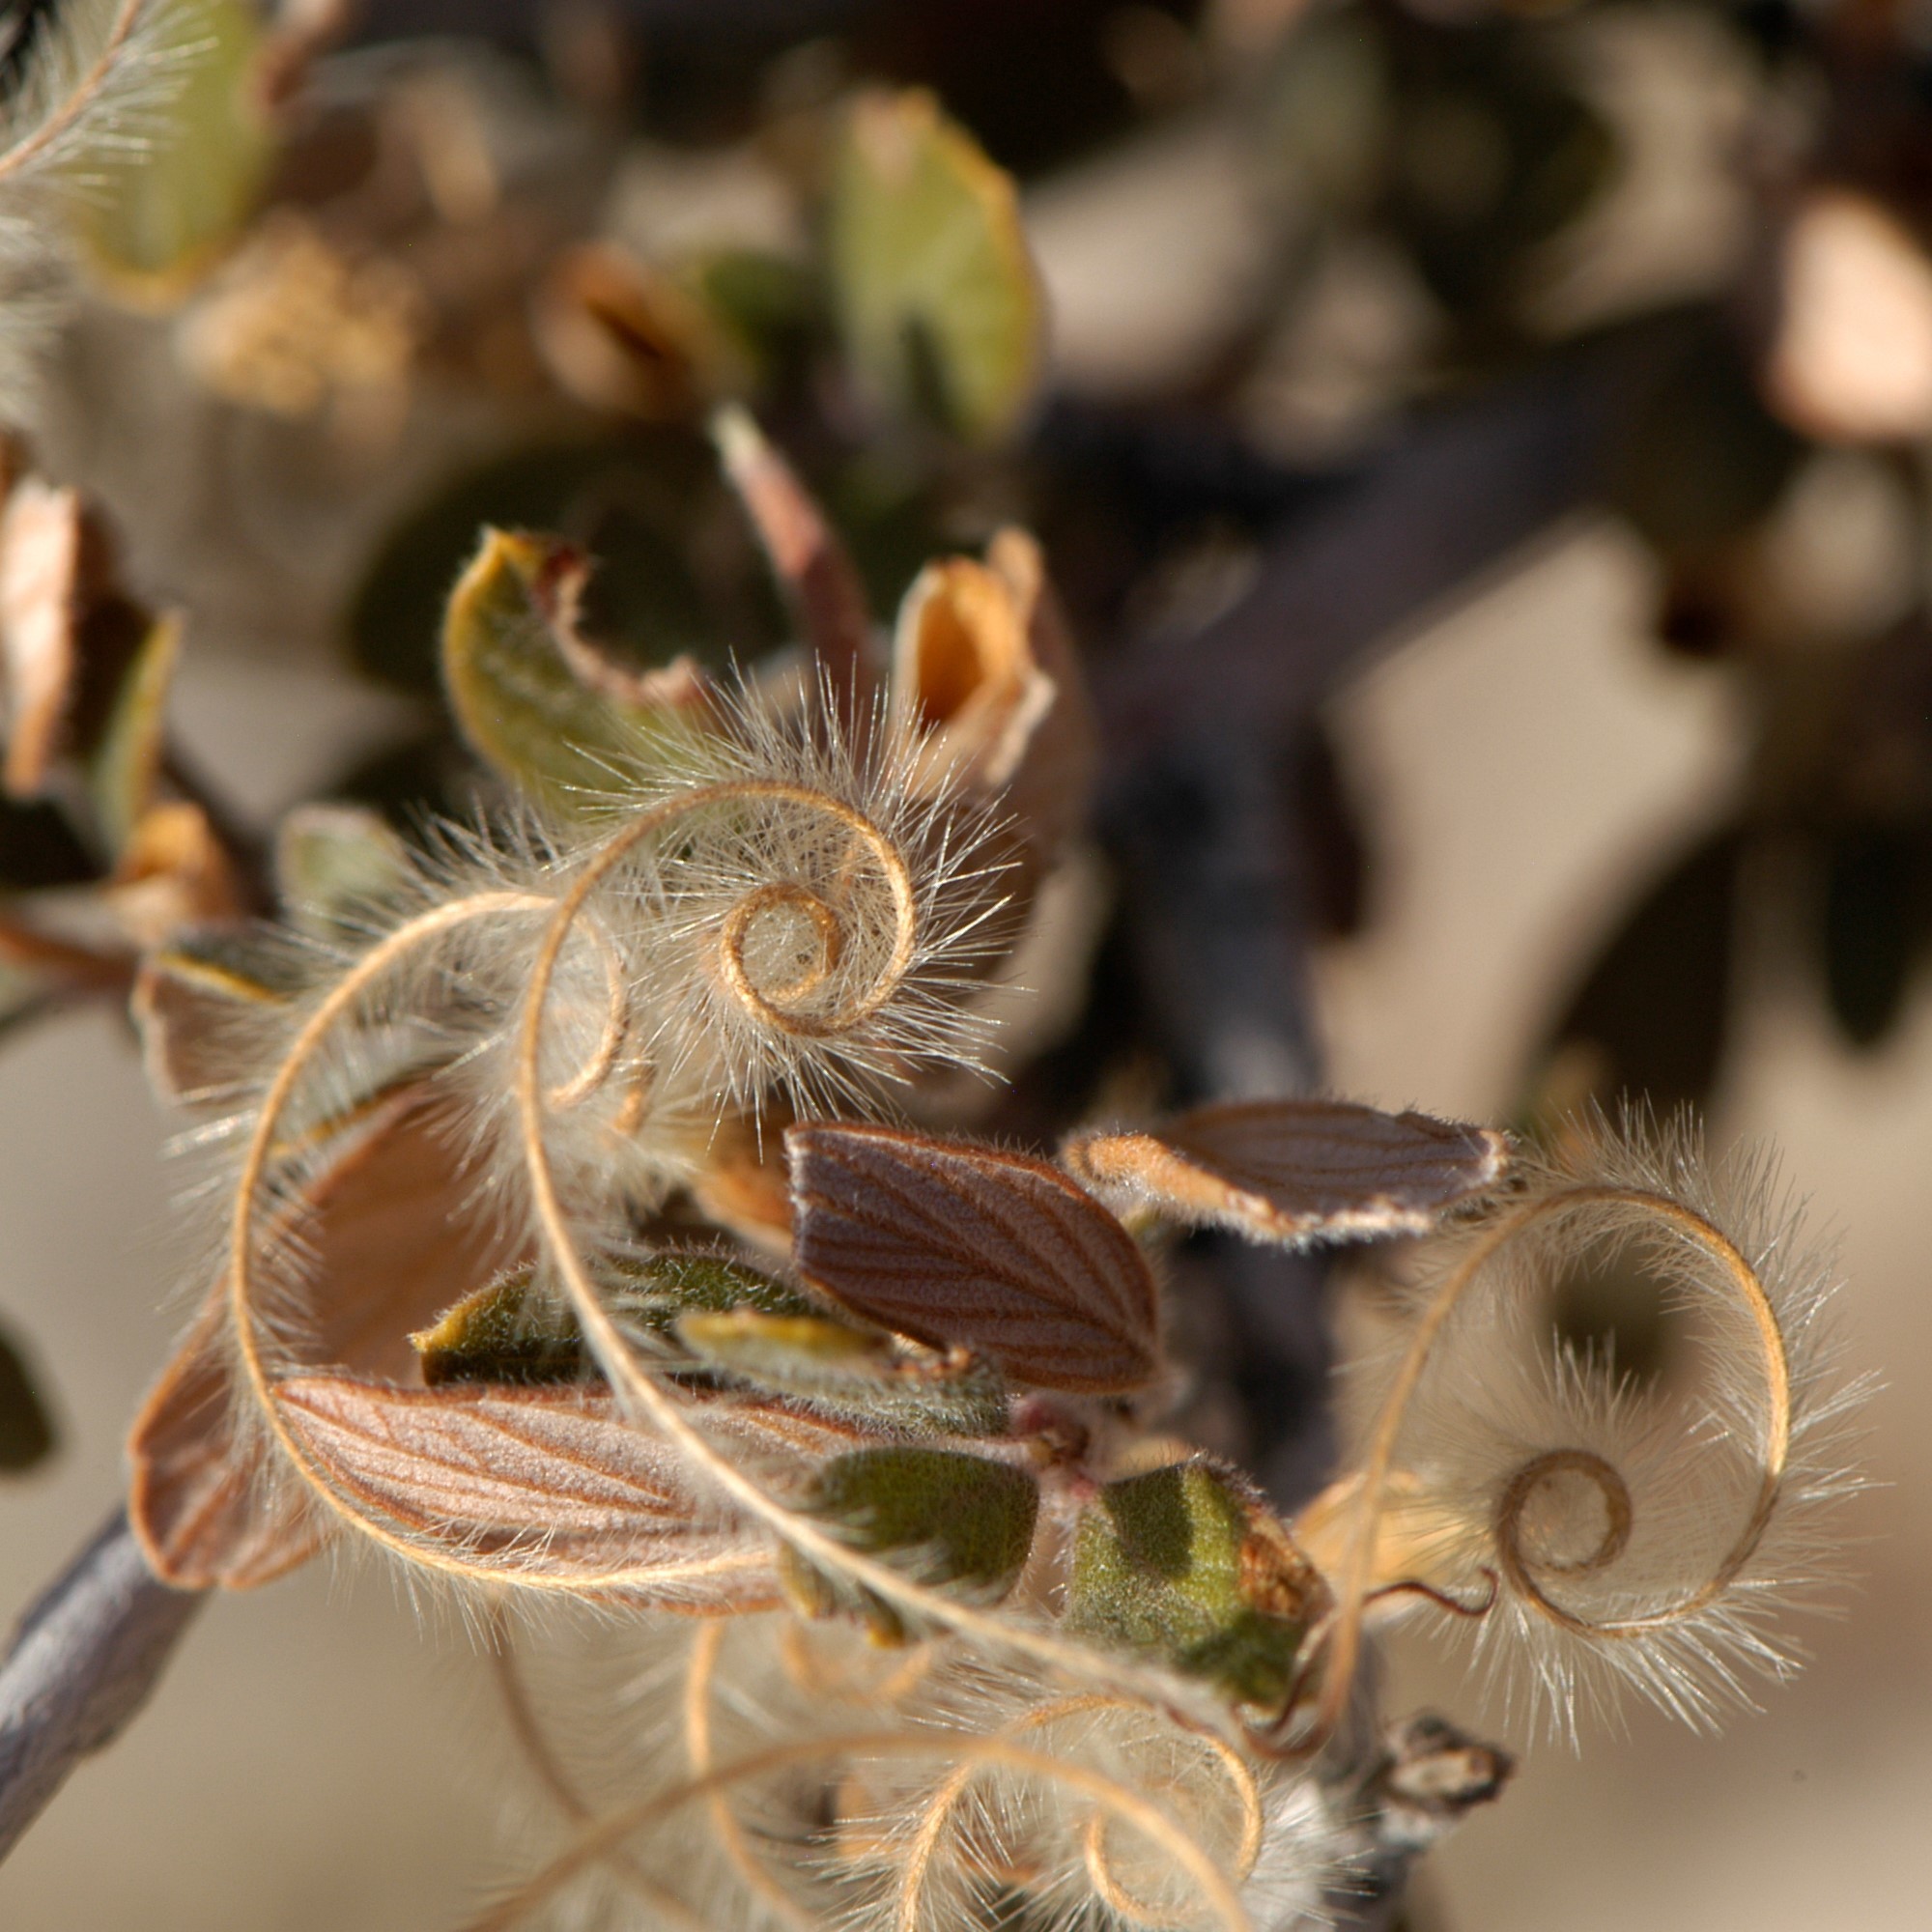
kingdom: Plantae
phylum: Tracheophyta
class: Magnoliopsida
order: Rosales
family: Rosaceae
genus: Cercocarpus
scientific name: Cercocarpus breviflorus
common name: Wright's mountain-mahogany
